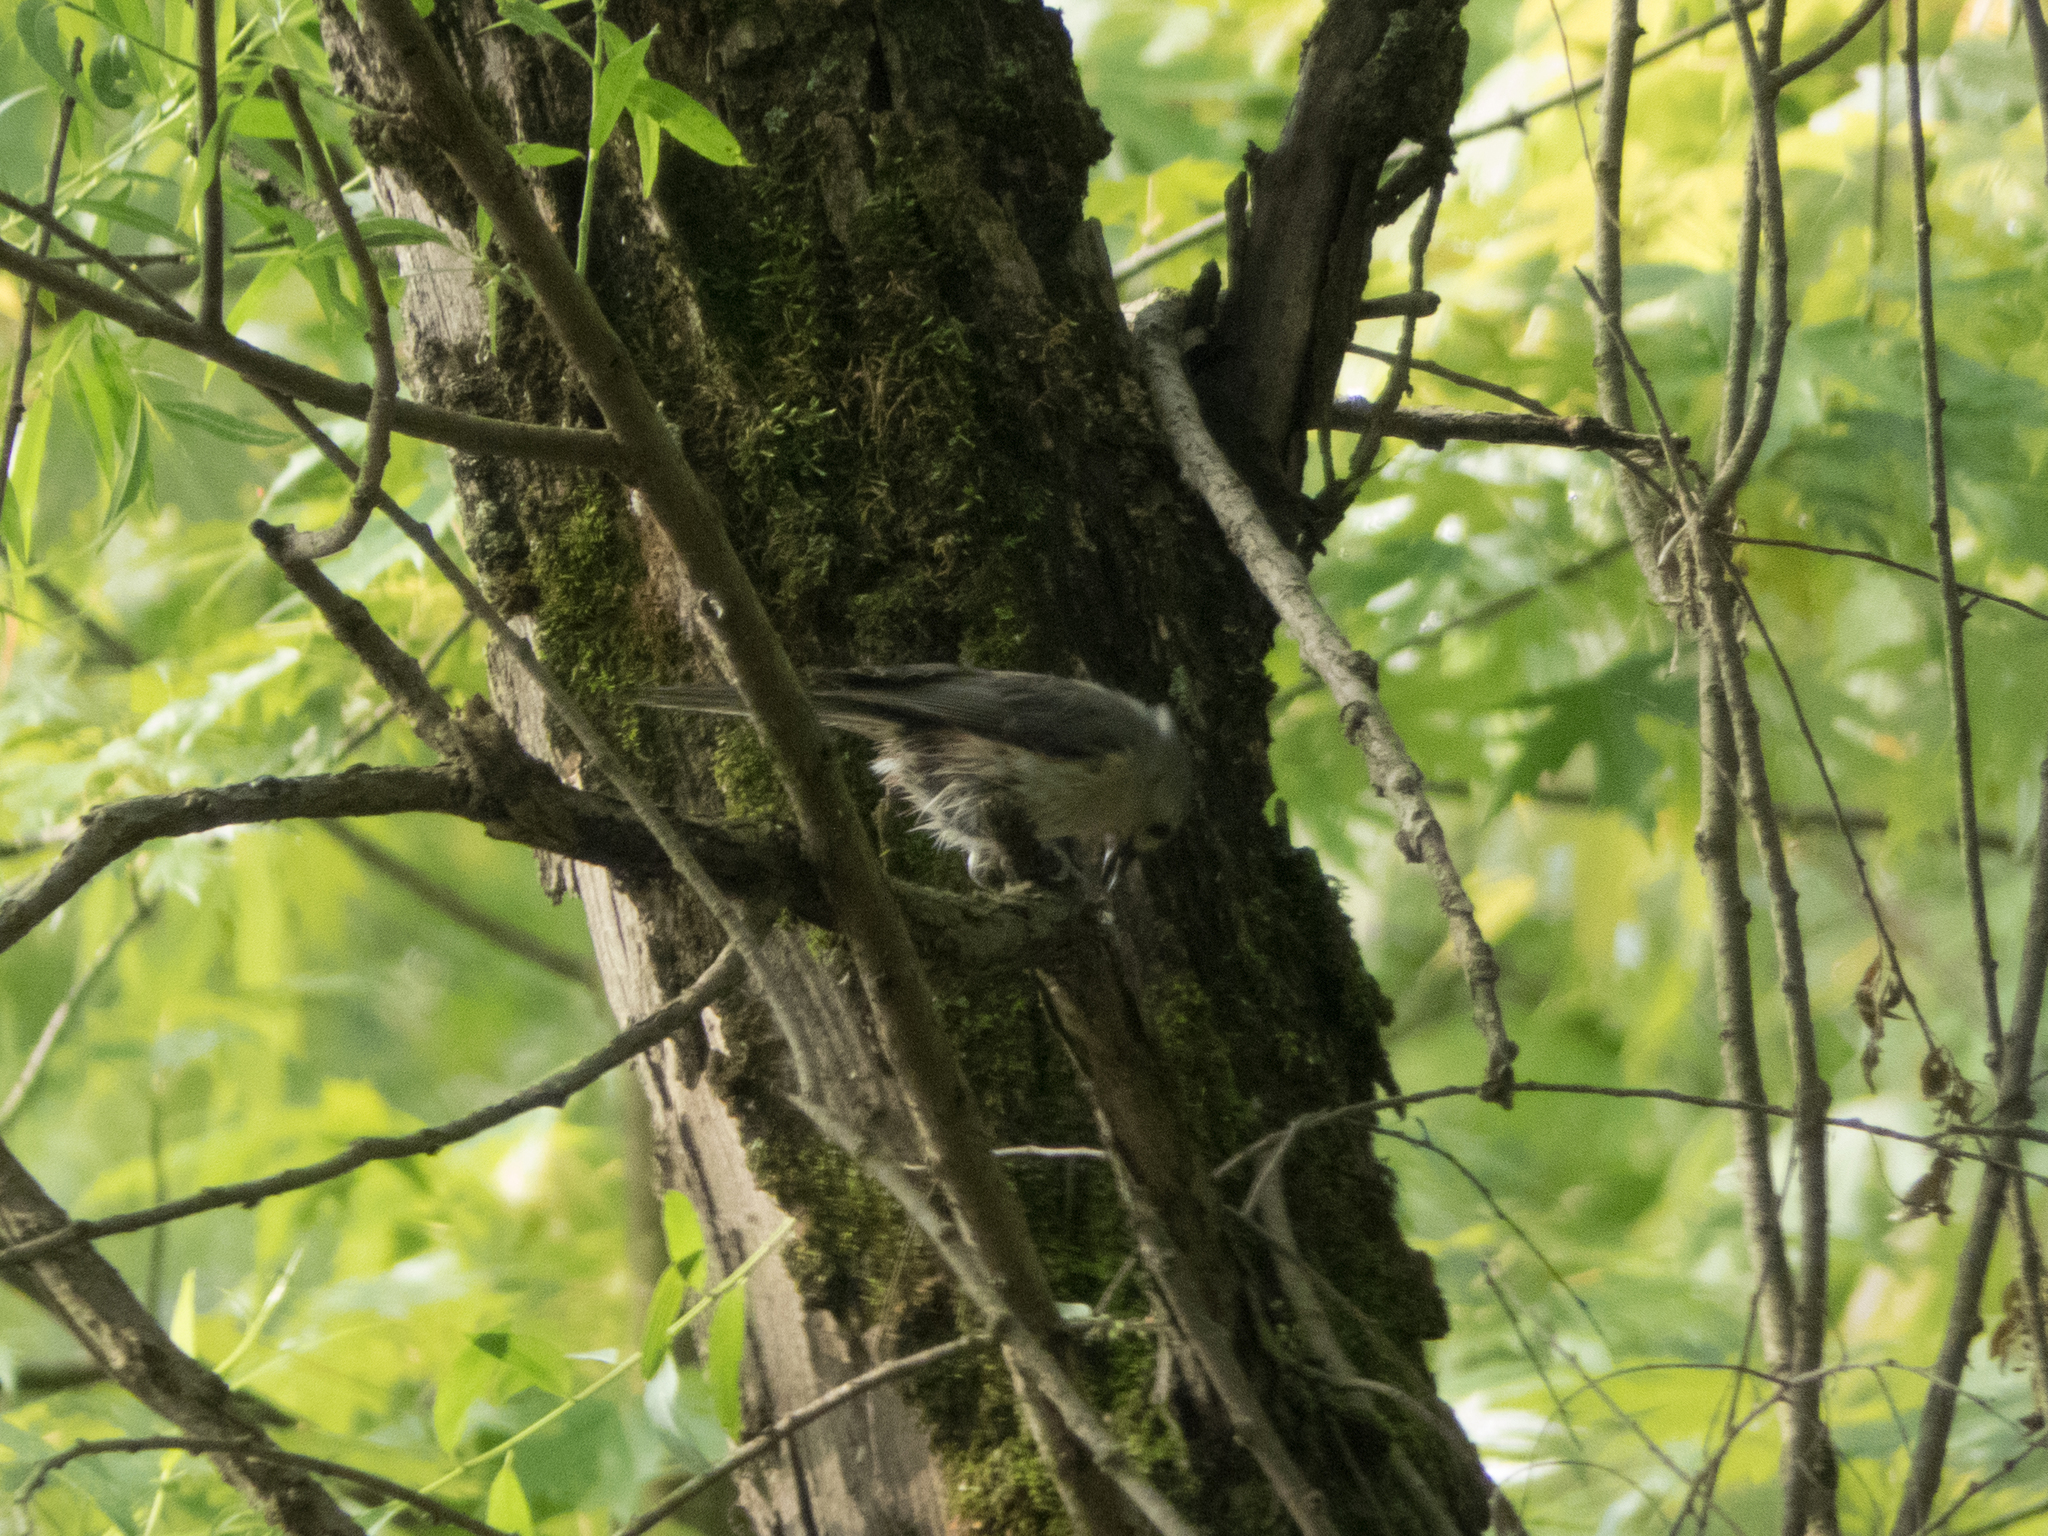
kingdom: Animalia
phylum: Chordata
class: Aves
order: Passeriformes
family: Paridae
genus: Baeolophus
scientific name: Baeolophus bicolor
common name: Tufted titmouse
